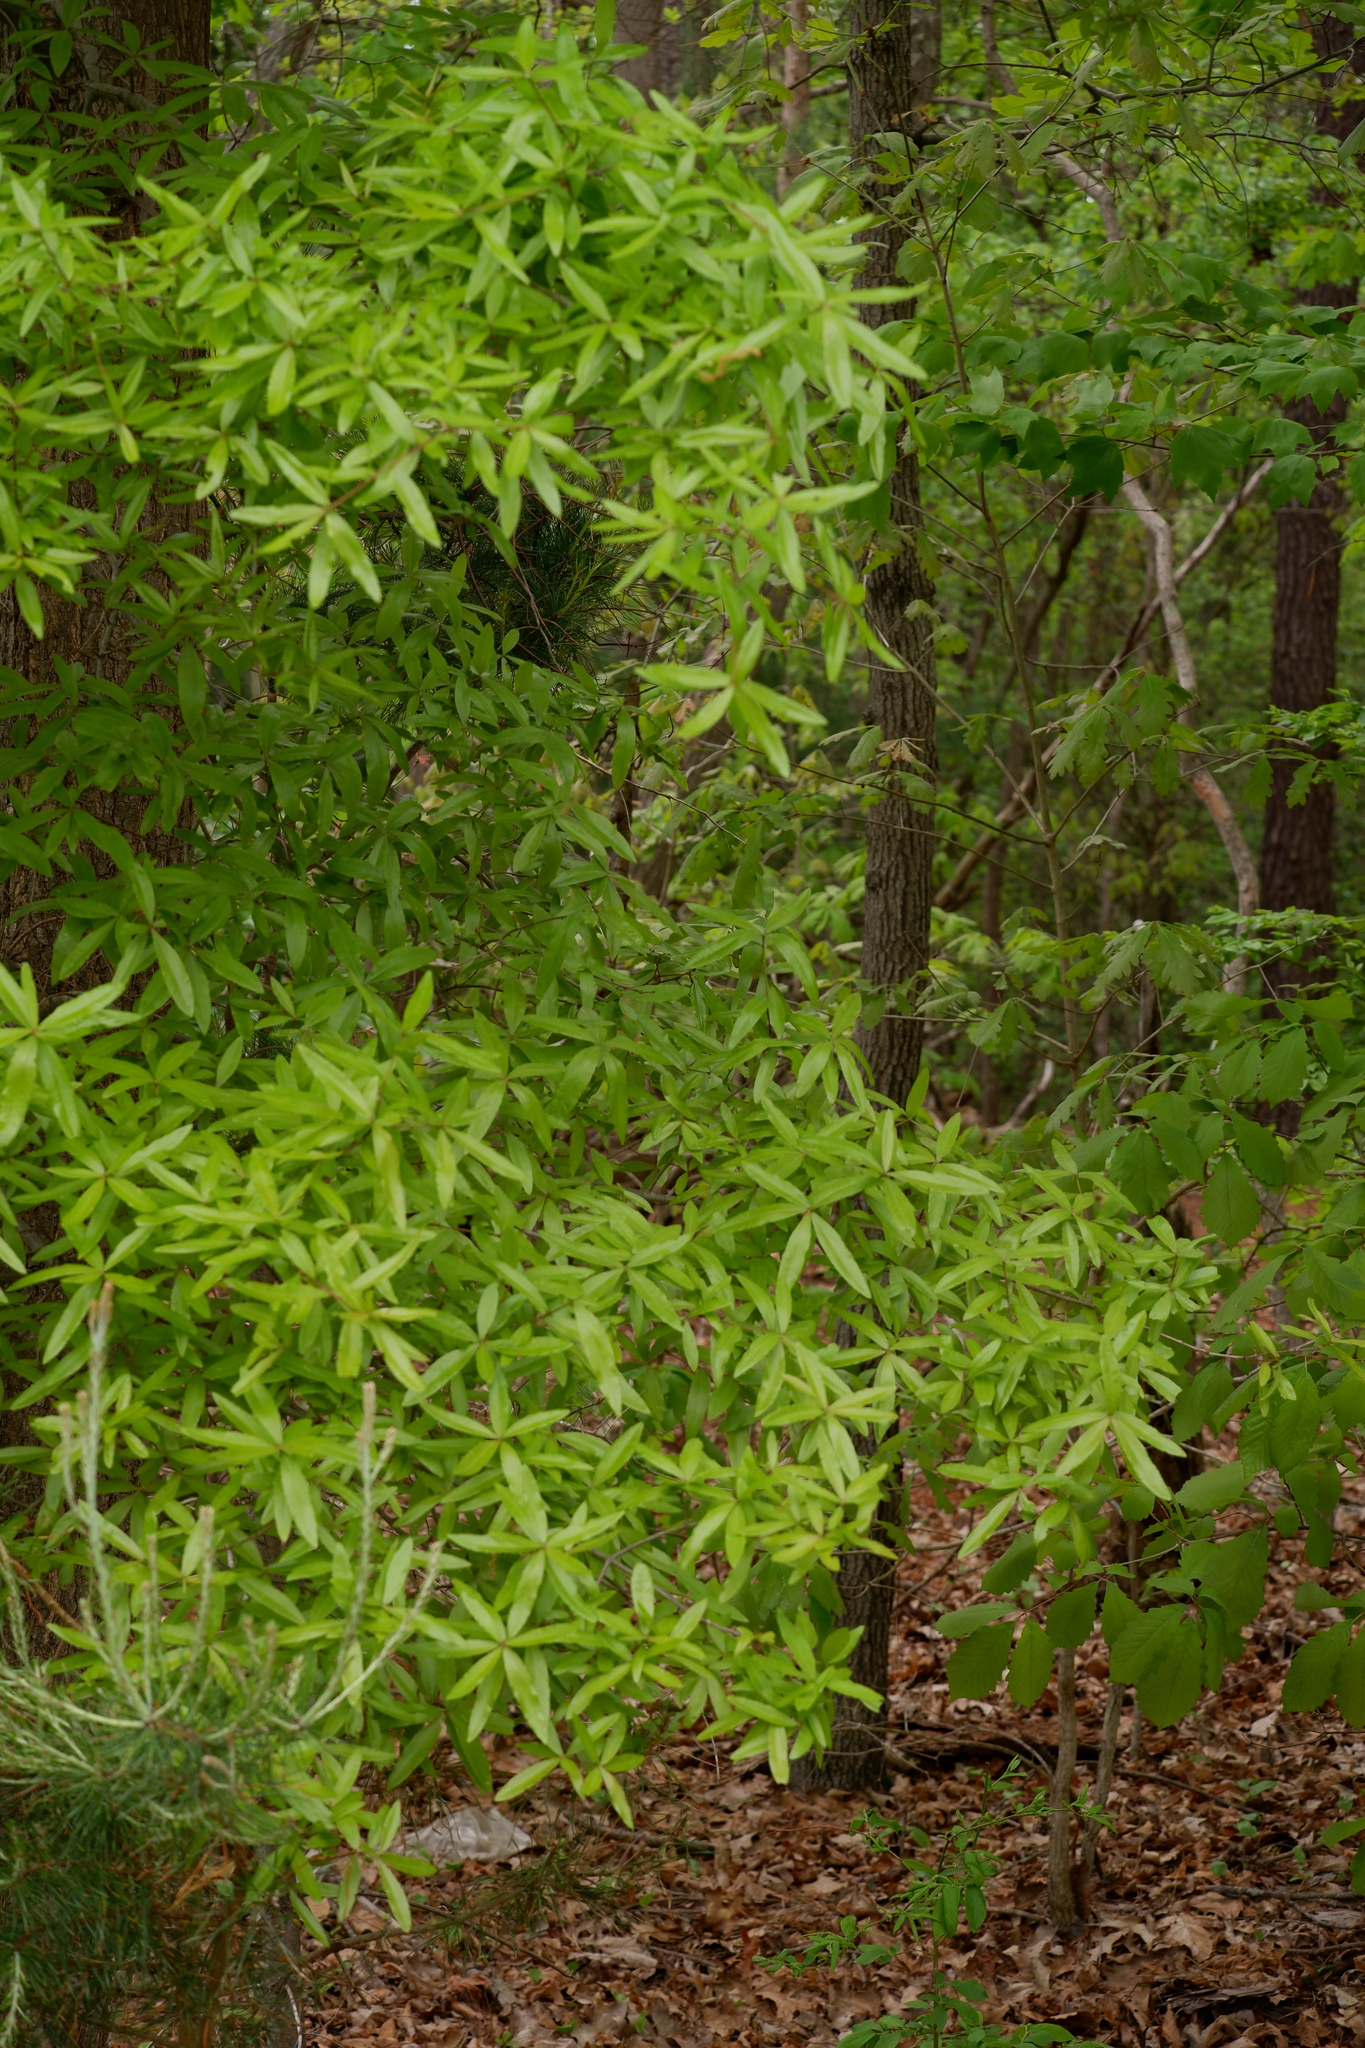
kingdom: Plantae
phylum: Tracheophyta
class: Magnoliopsida
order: Fagales
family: Fagaceae
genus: Quercus
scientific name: Quercus phellos
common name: Willow oak
